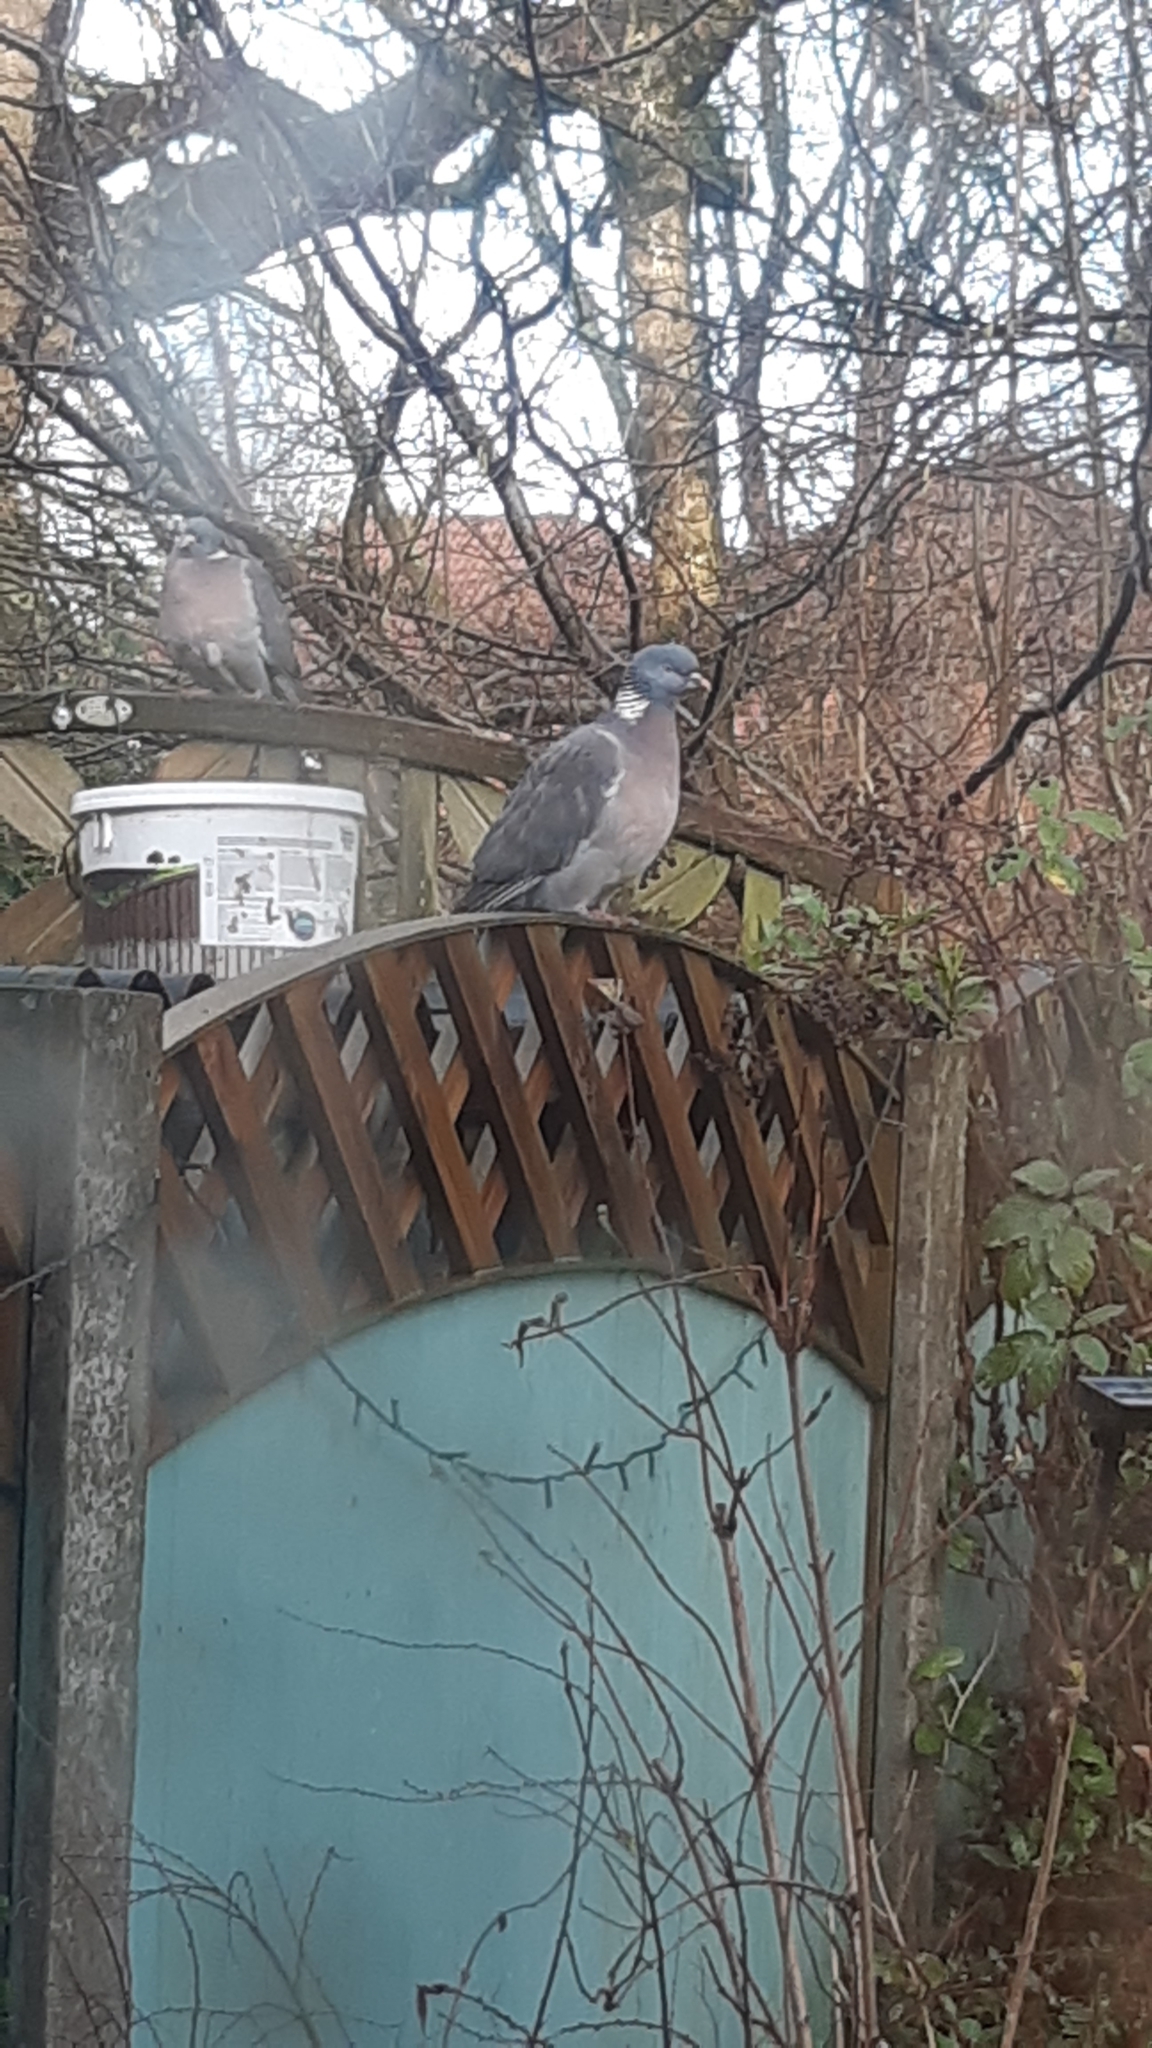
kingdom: Animalia
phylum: Chordata
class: Aves
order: Columbiformes
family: Columbidae
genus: Columba
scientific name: Columba palumbus
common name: Common wood pigeon
